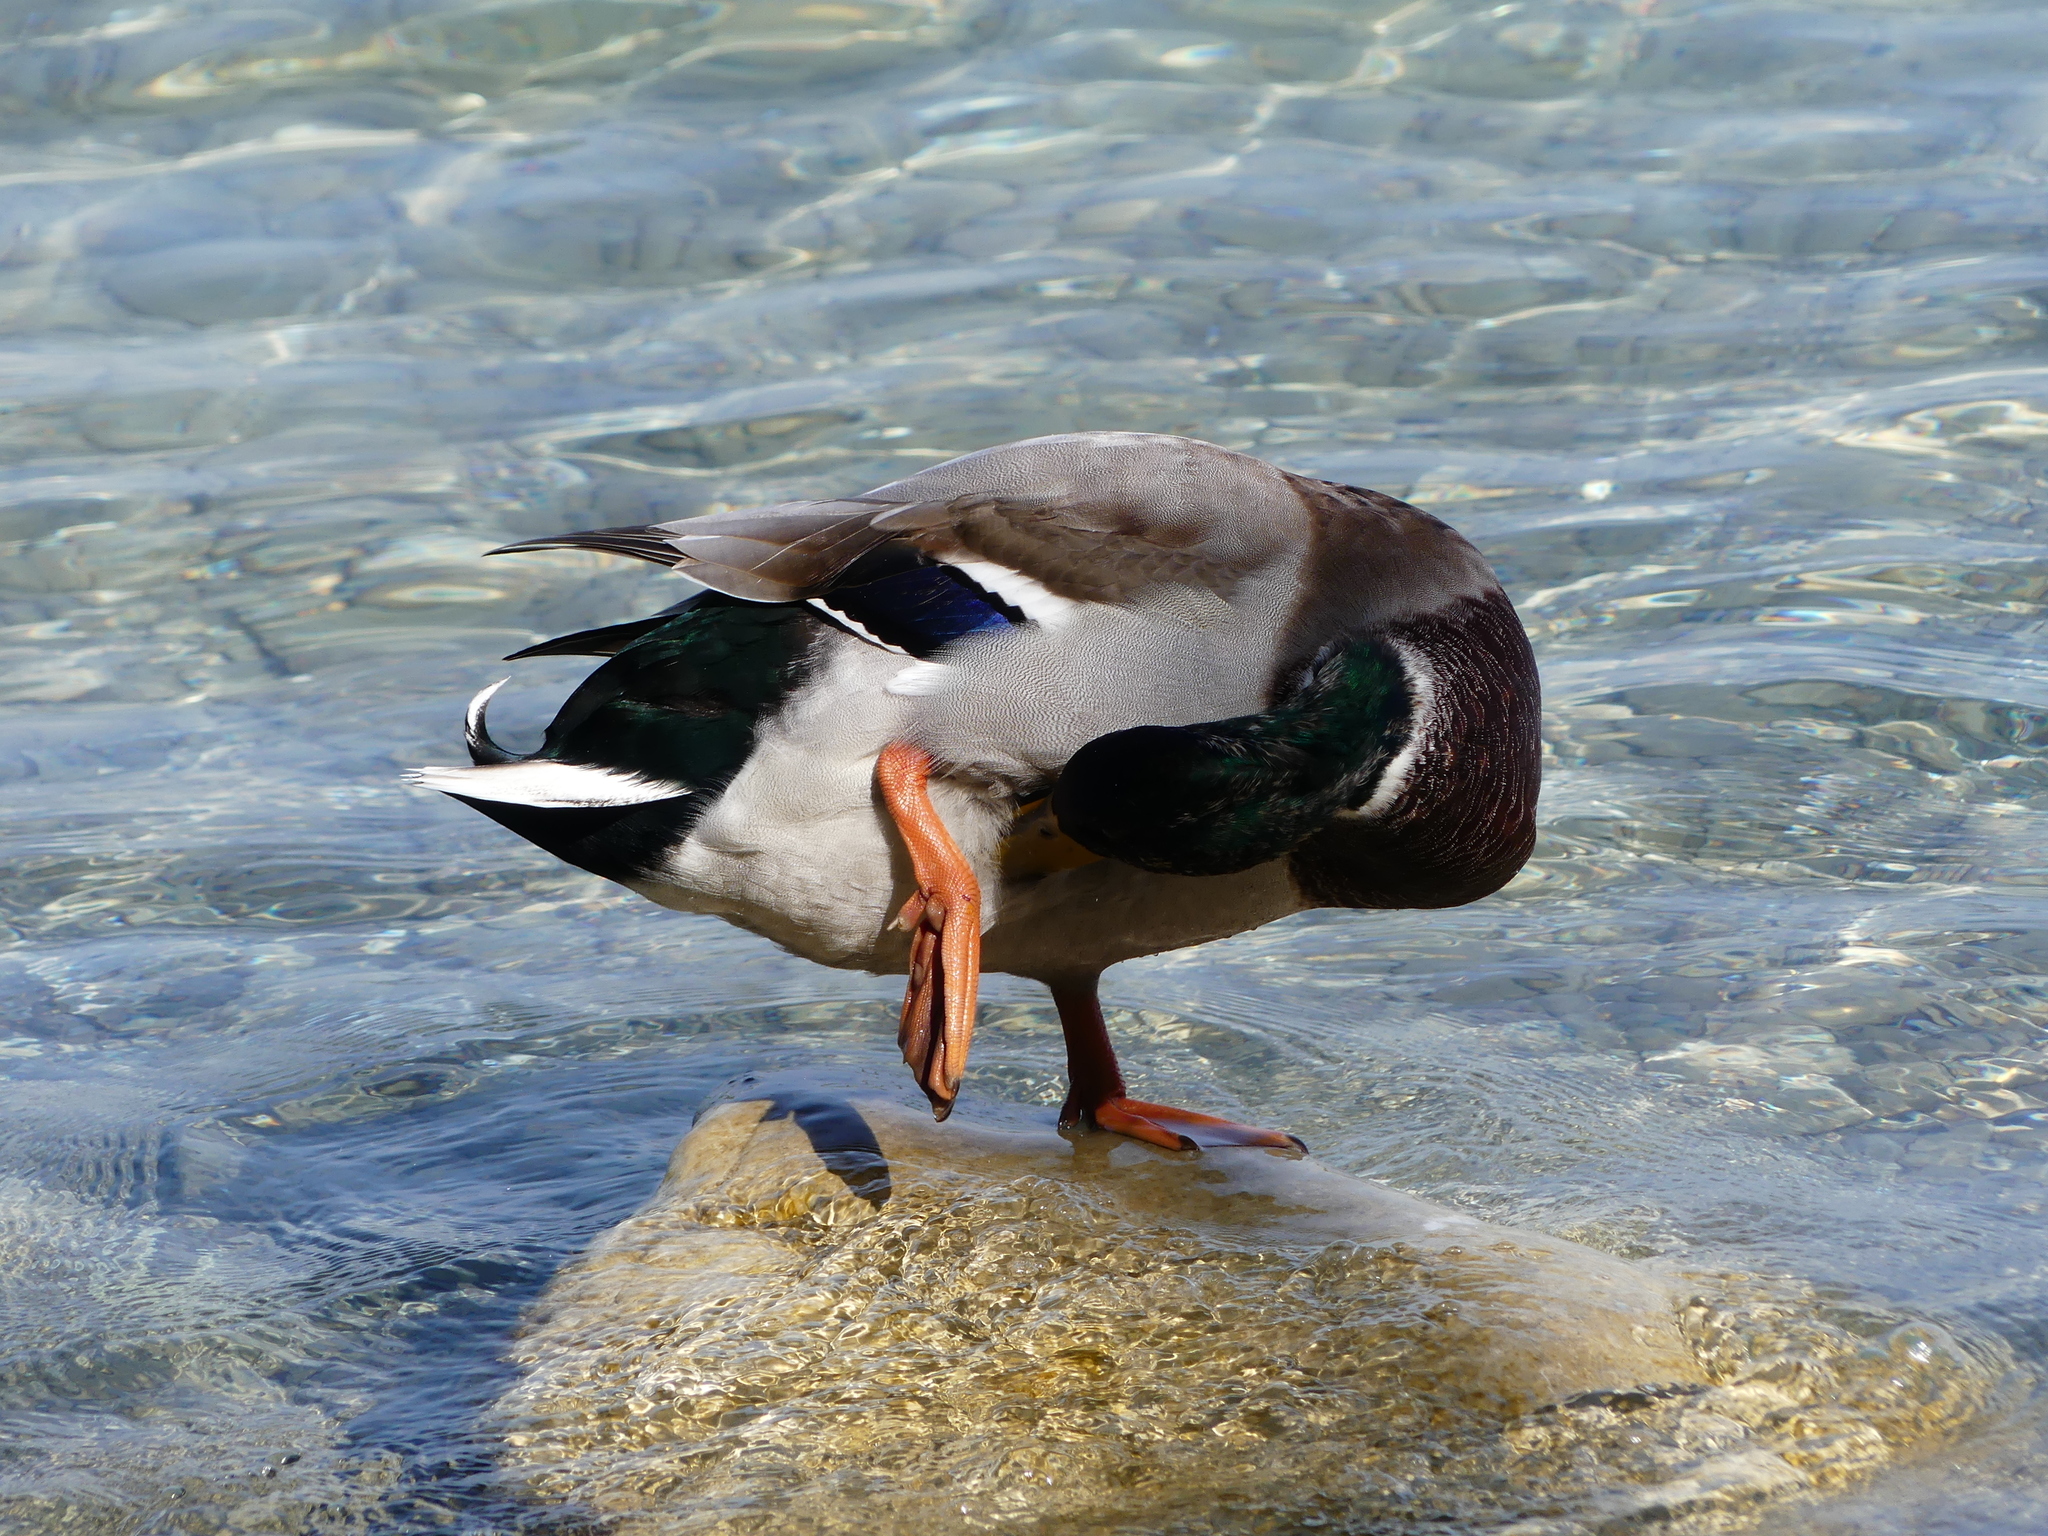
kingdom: Animalia
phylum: Chordata
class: Aves
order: Anseriformes
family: Anatidae
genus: Anas
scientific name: Anas platyrhynchos
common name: Mallard
